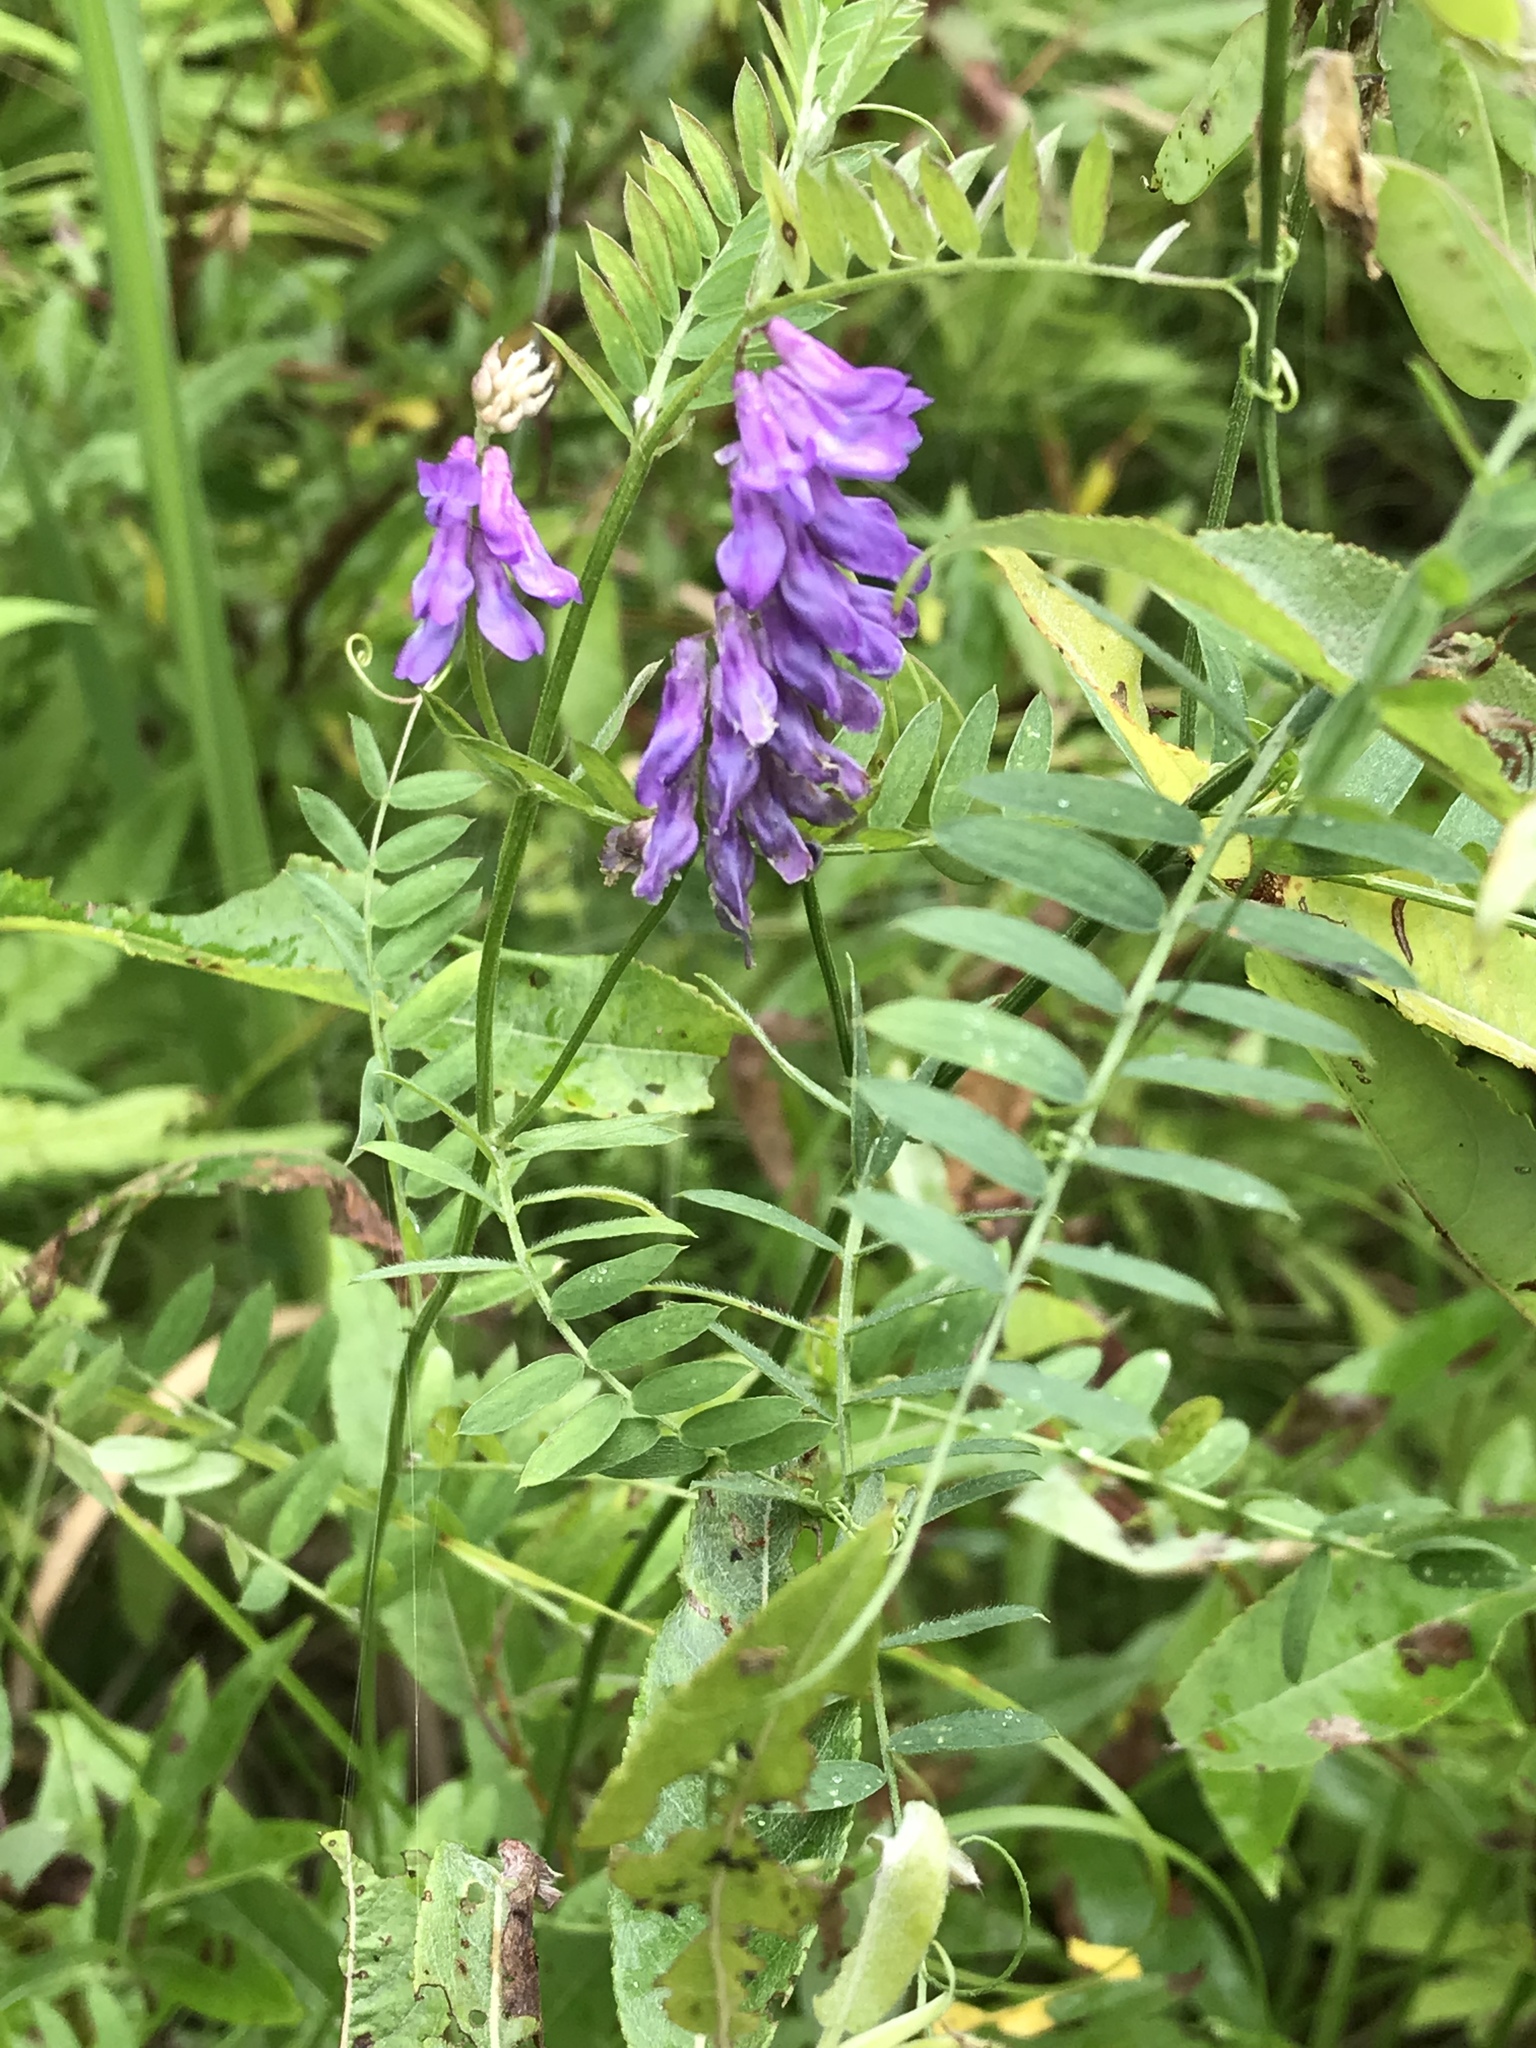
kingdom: Plantae
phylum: Tracheophyta
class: Magnoliopsida
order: Fabales
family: Fabaceae
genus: Vicia
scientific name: Vicia cracca
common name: Bird vetch
